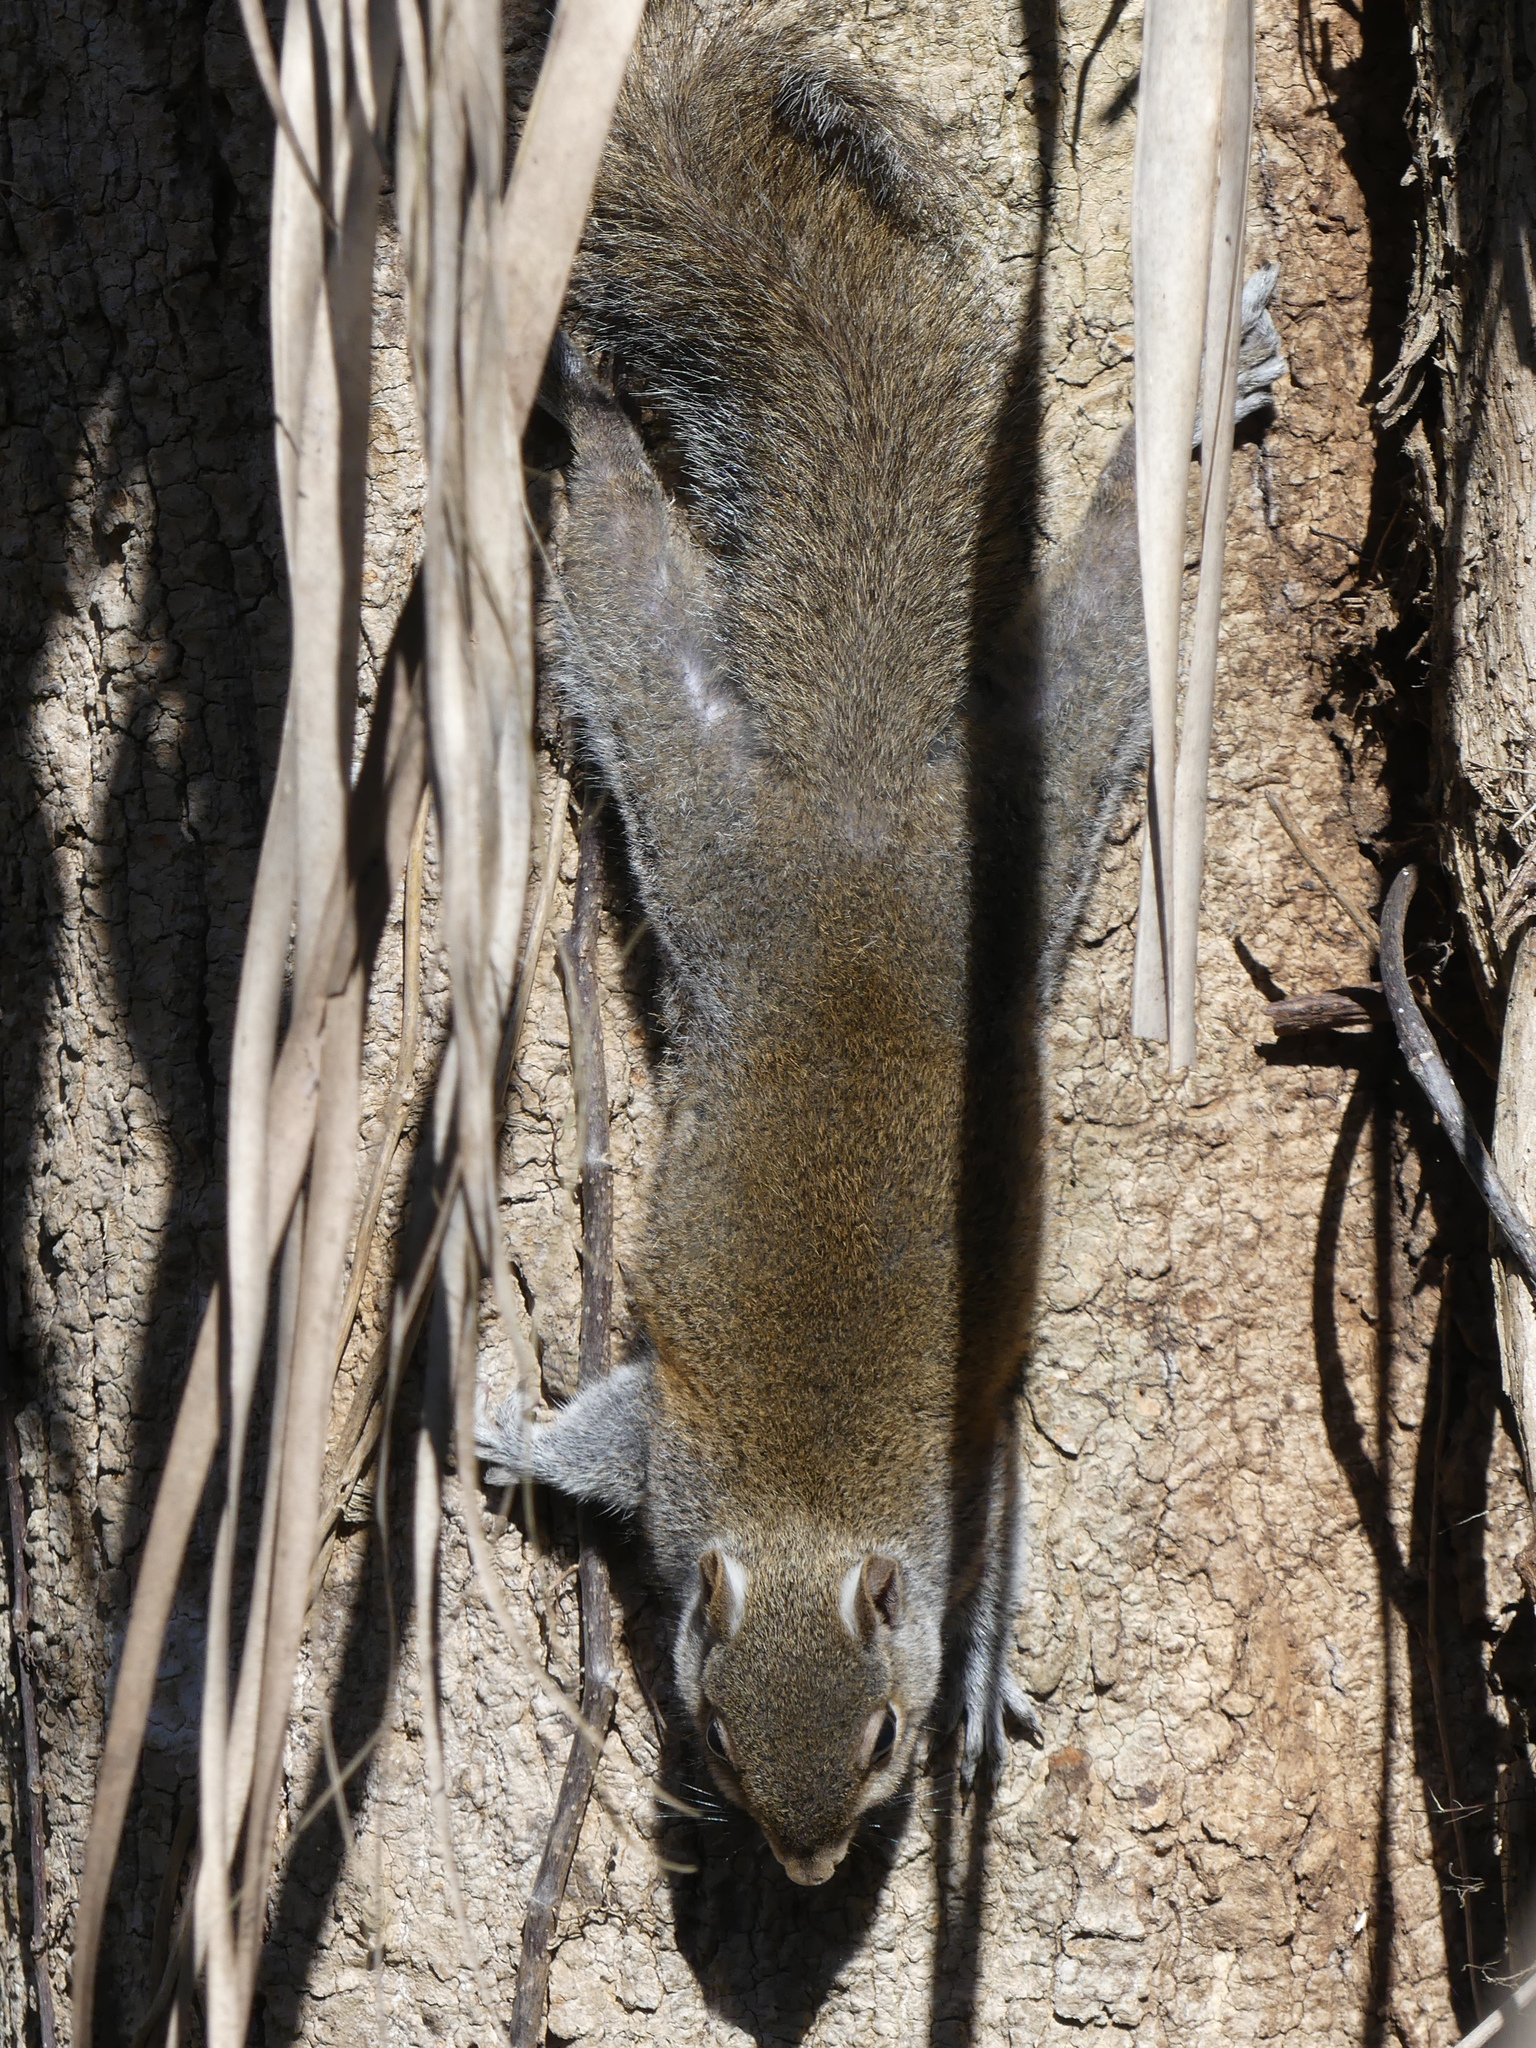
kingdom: Animalia
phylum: Chordata
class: Mammalia
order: Rodentia
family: Sciuridae
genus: Sciurus
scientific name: Sciurus carolinensis
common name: Eastern gray squirrel
